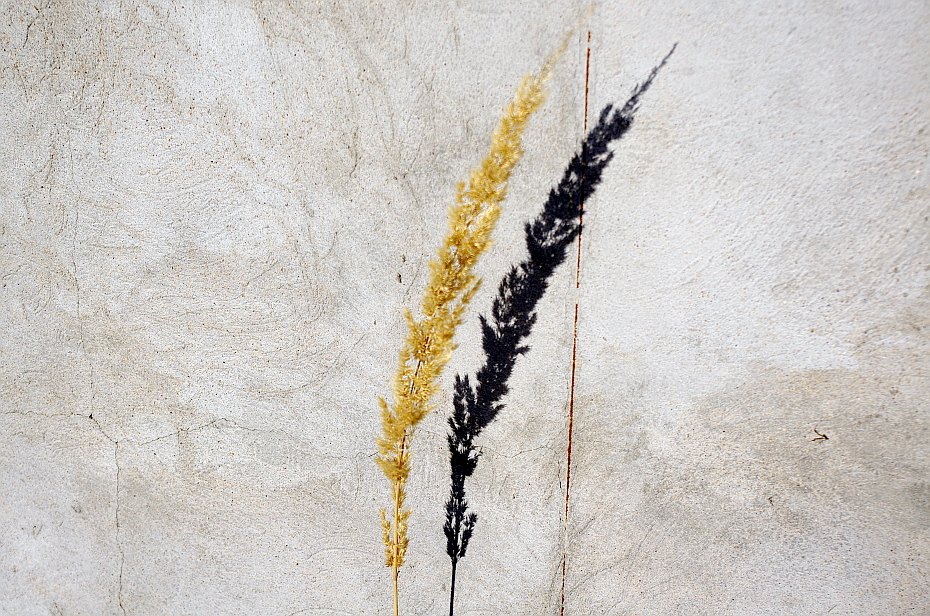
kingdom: Plantae
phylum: Tracheophyta
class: Liliopsida
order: Poales
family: Poaceae
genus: Calamagrostis
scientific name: Calamagrostis epigejos
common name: Wood small-reed
